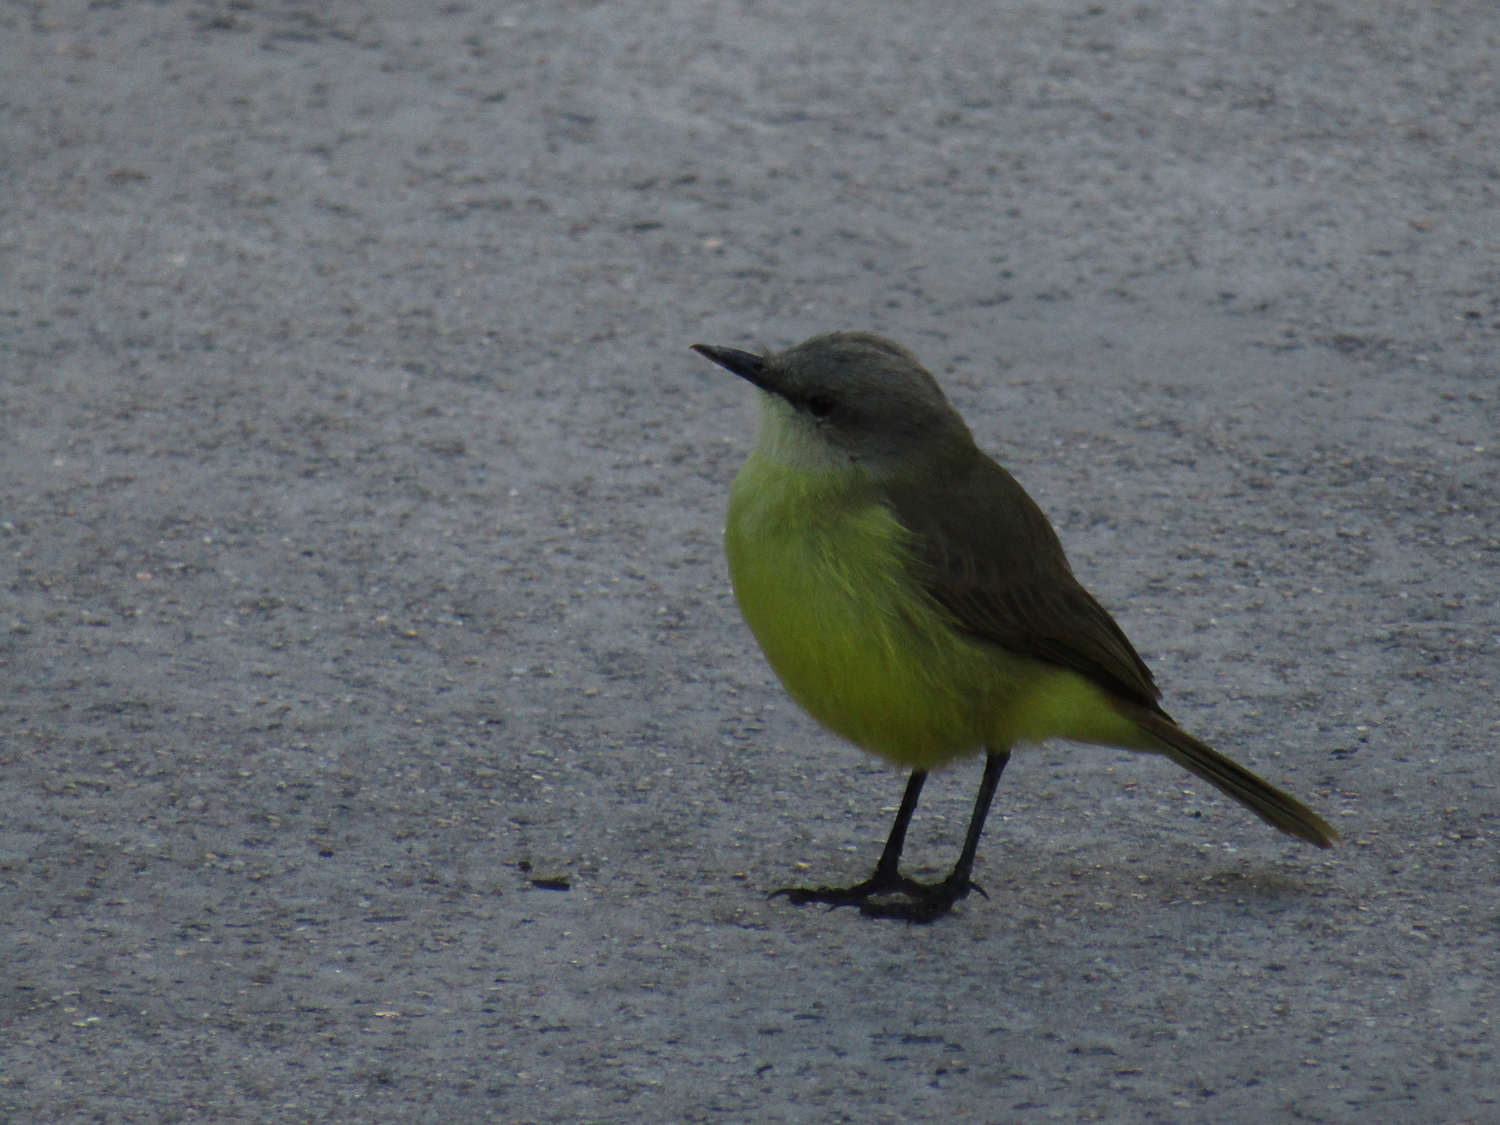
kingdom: Animalia
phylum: Chordata
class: Aves
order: Passeriformes
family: Tyrannidae
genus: Machetornis
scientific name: Machetornis rixosa
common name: Cattle tyrant
